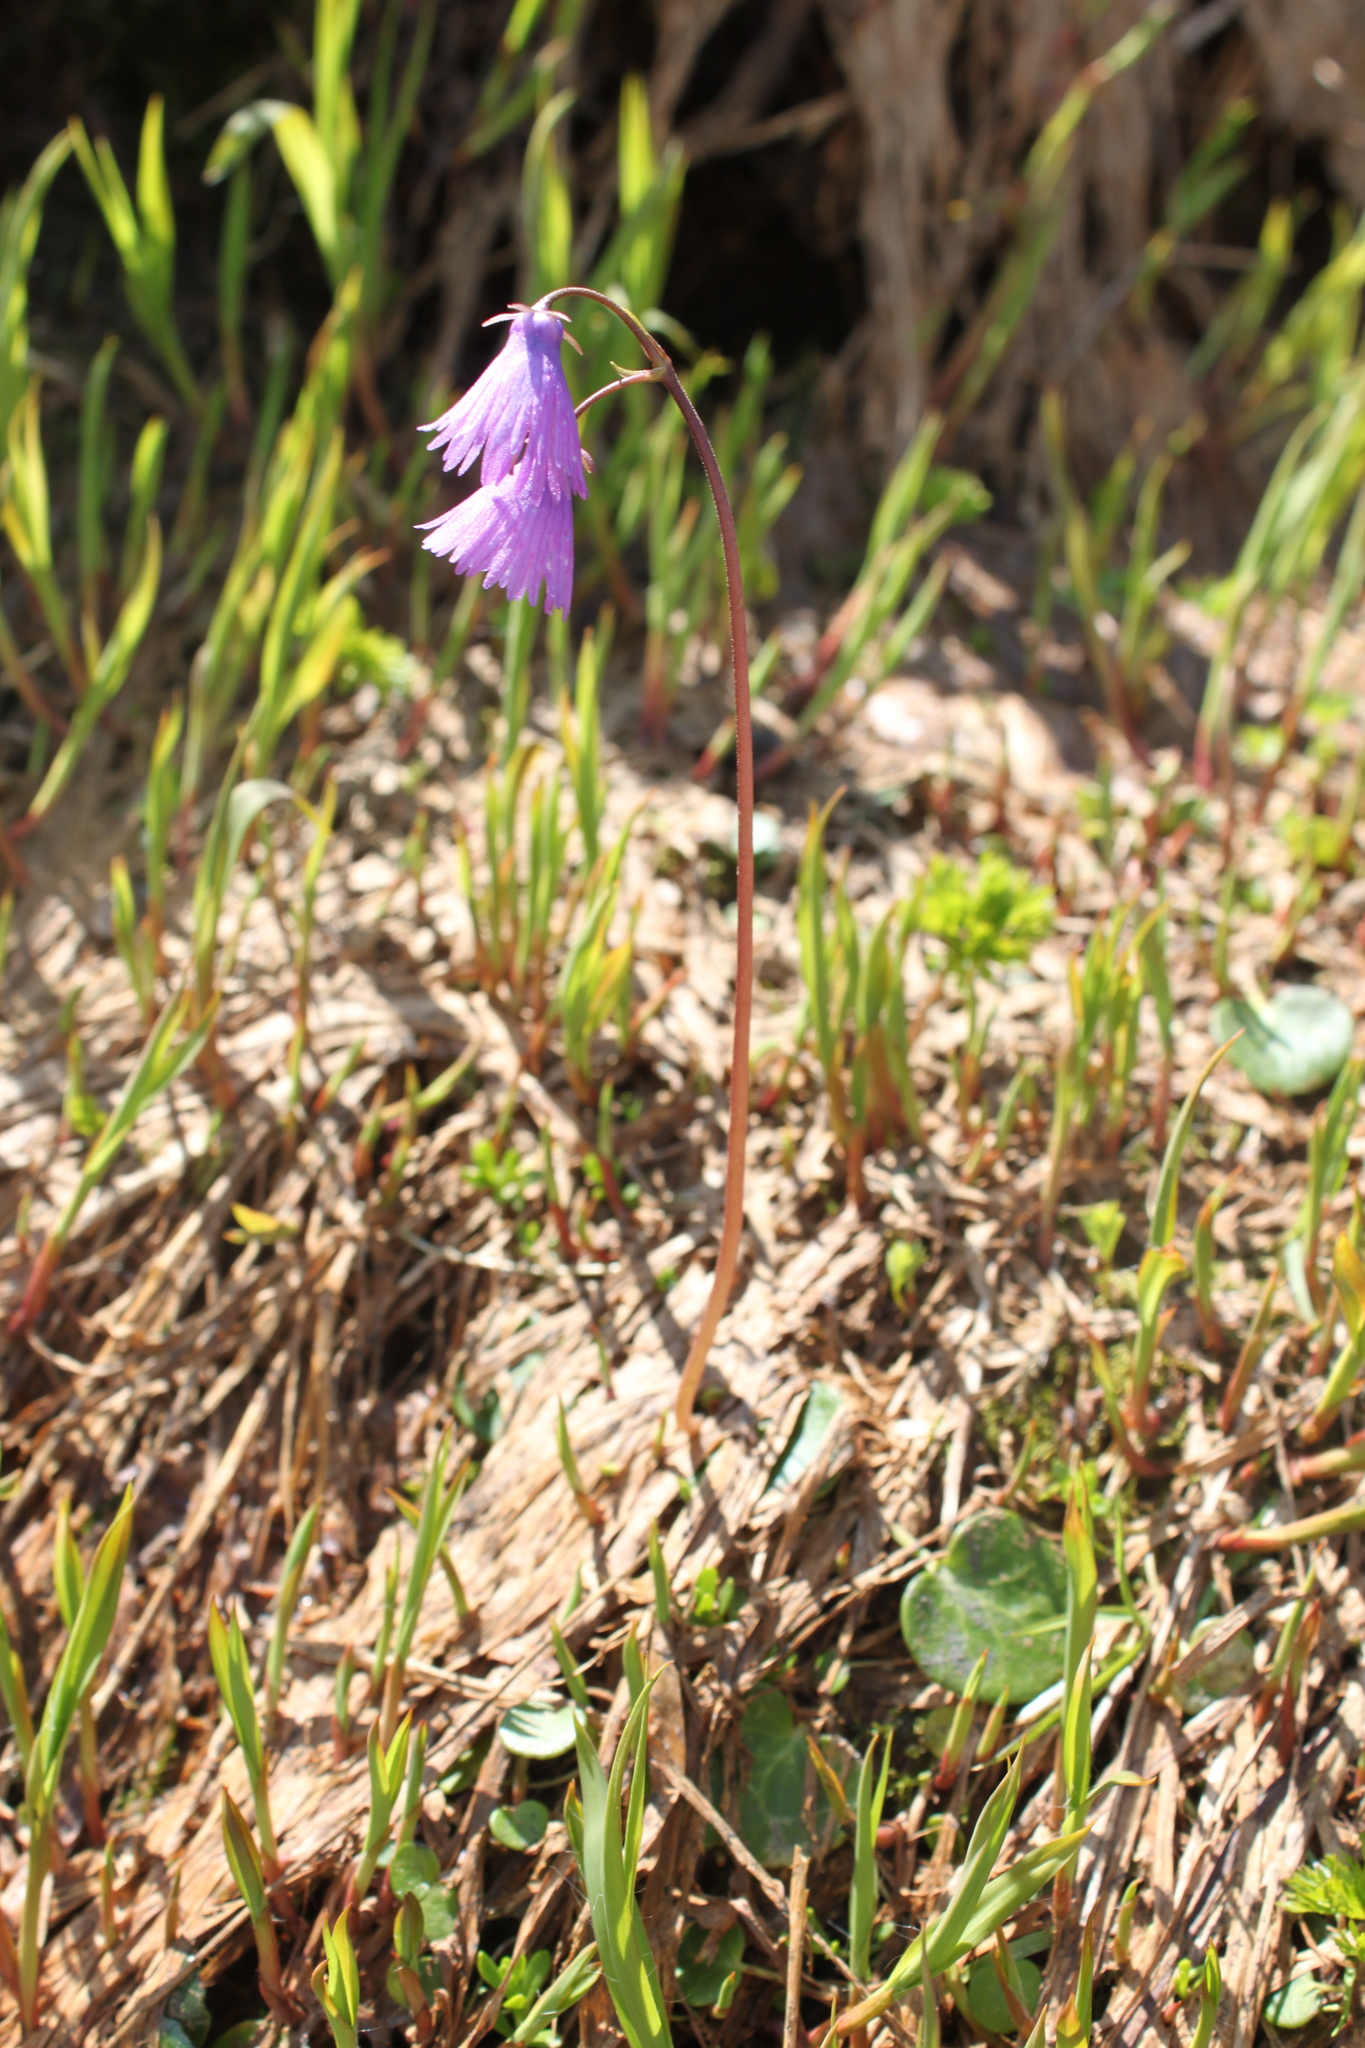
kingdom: Plantae
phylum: Tracheophyta
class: Magnoliopsida
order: Ericales
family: Primulaceae
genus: Soldanella
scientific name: Soldanella alpina
